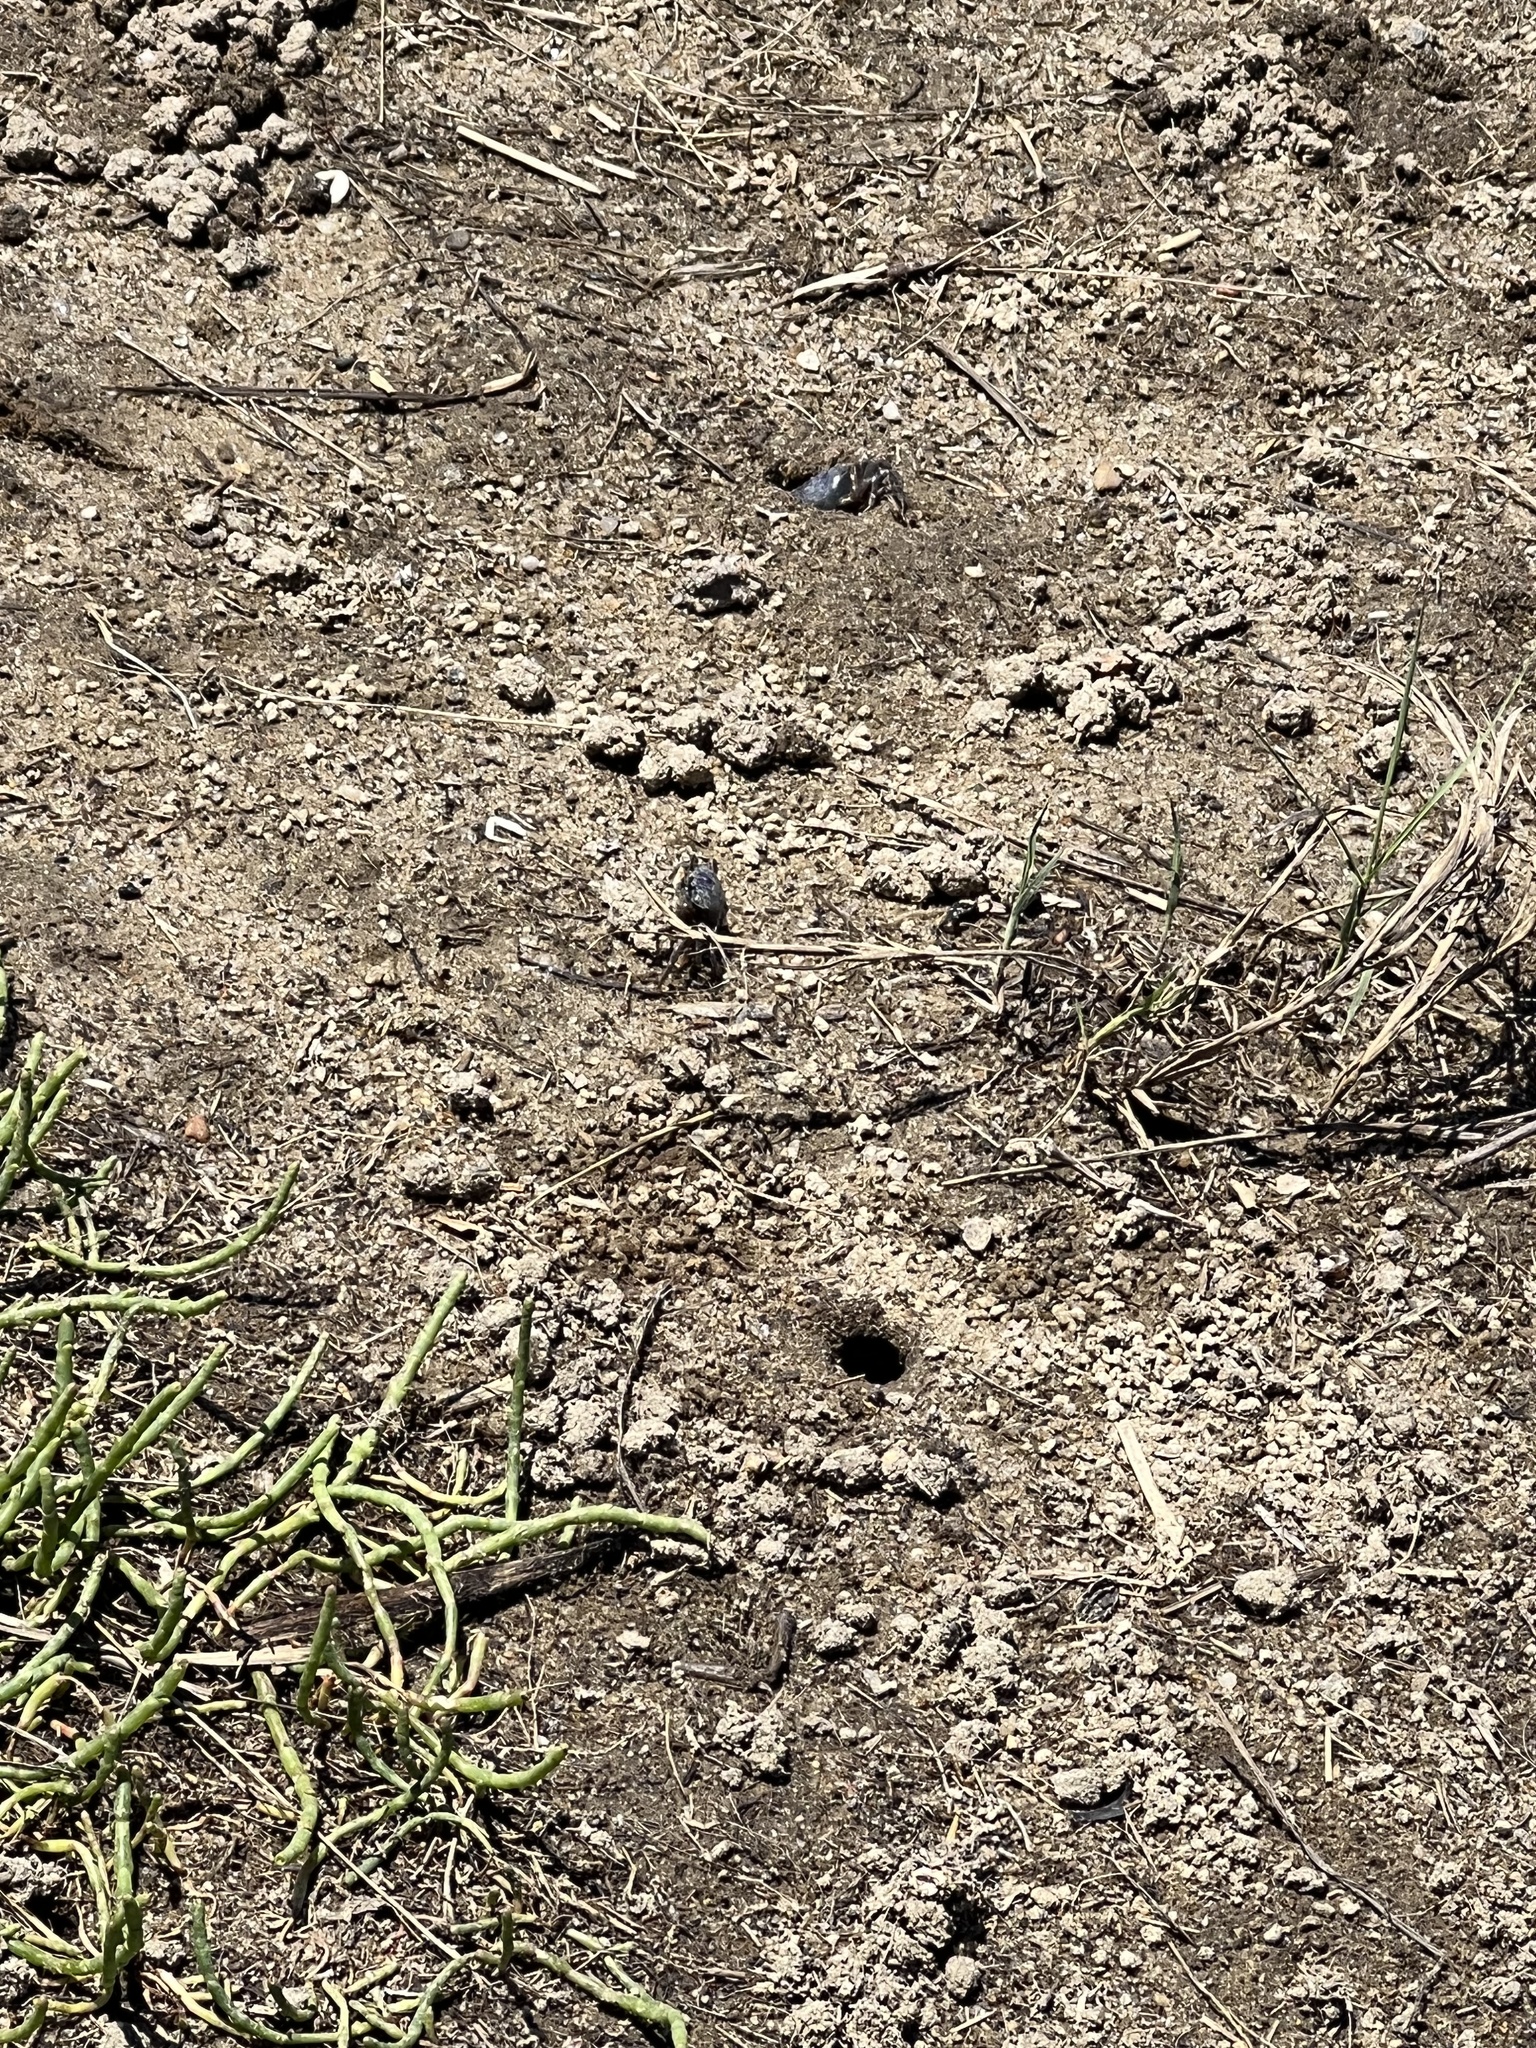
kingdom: Animalia
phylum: Arthropoda
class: Malacostraca
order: Decapoda
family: Ocypodidae
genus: Leptuca
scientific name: Leptuca pugilator
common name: Atlantic sand fiddler crab
